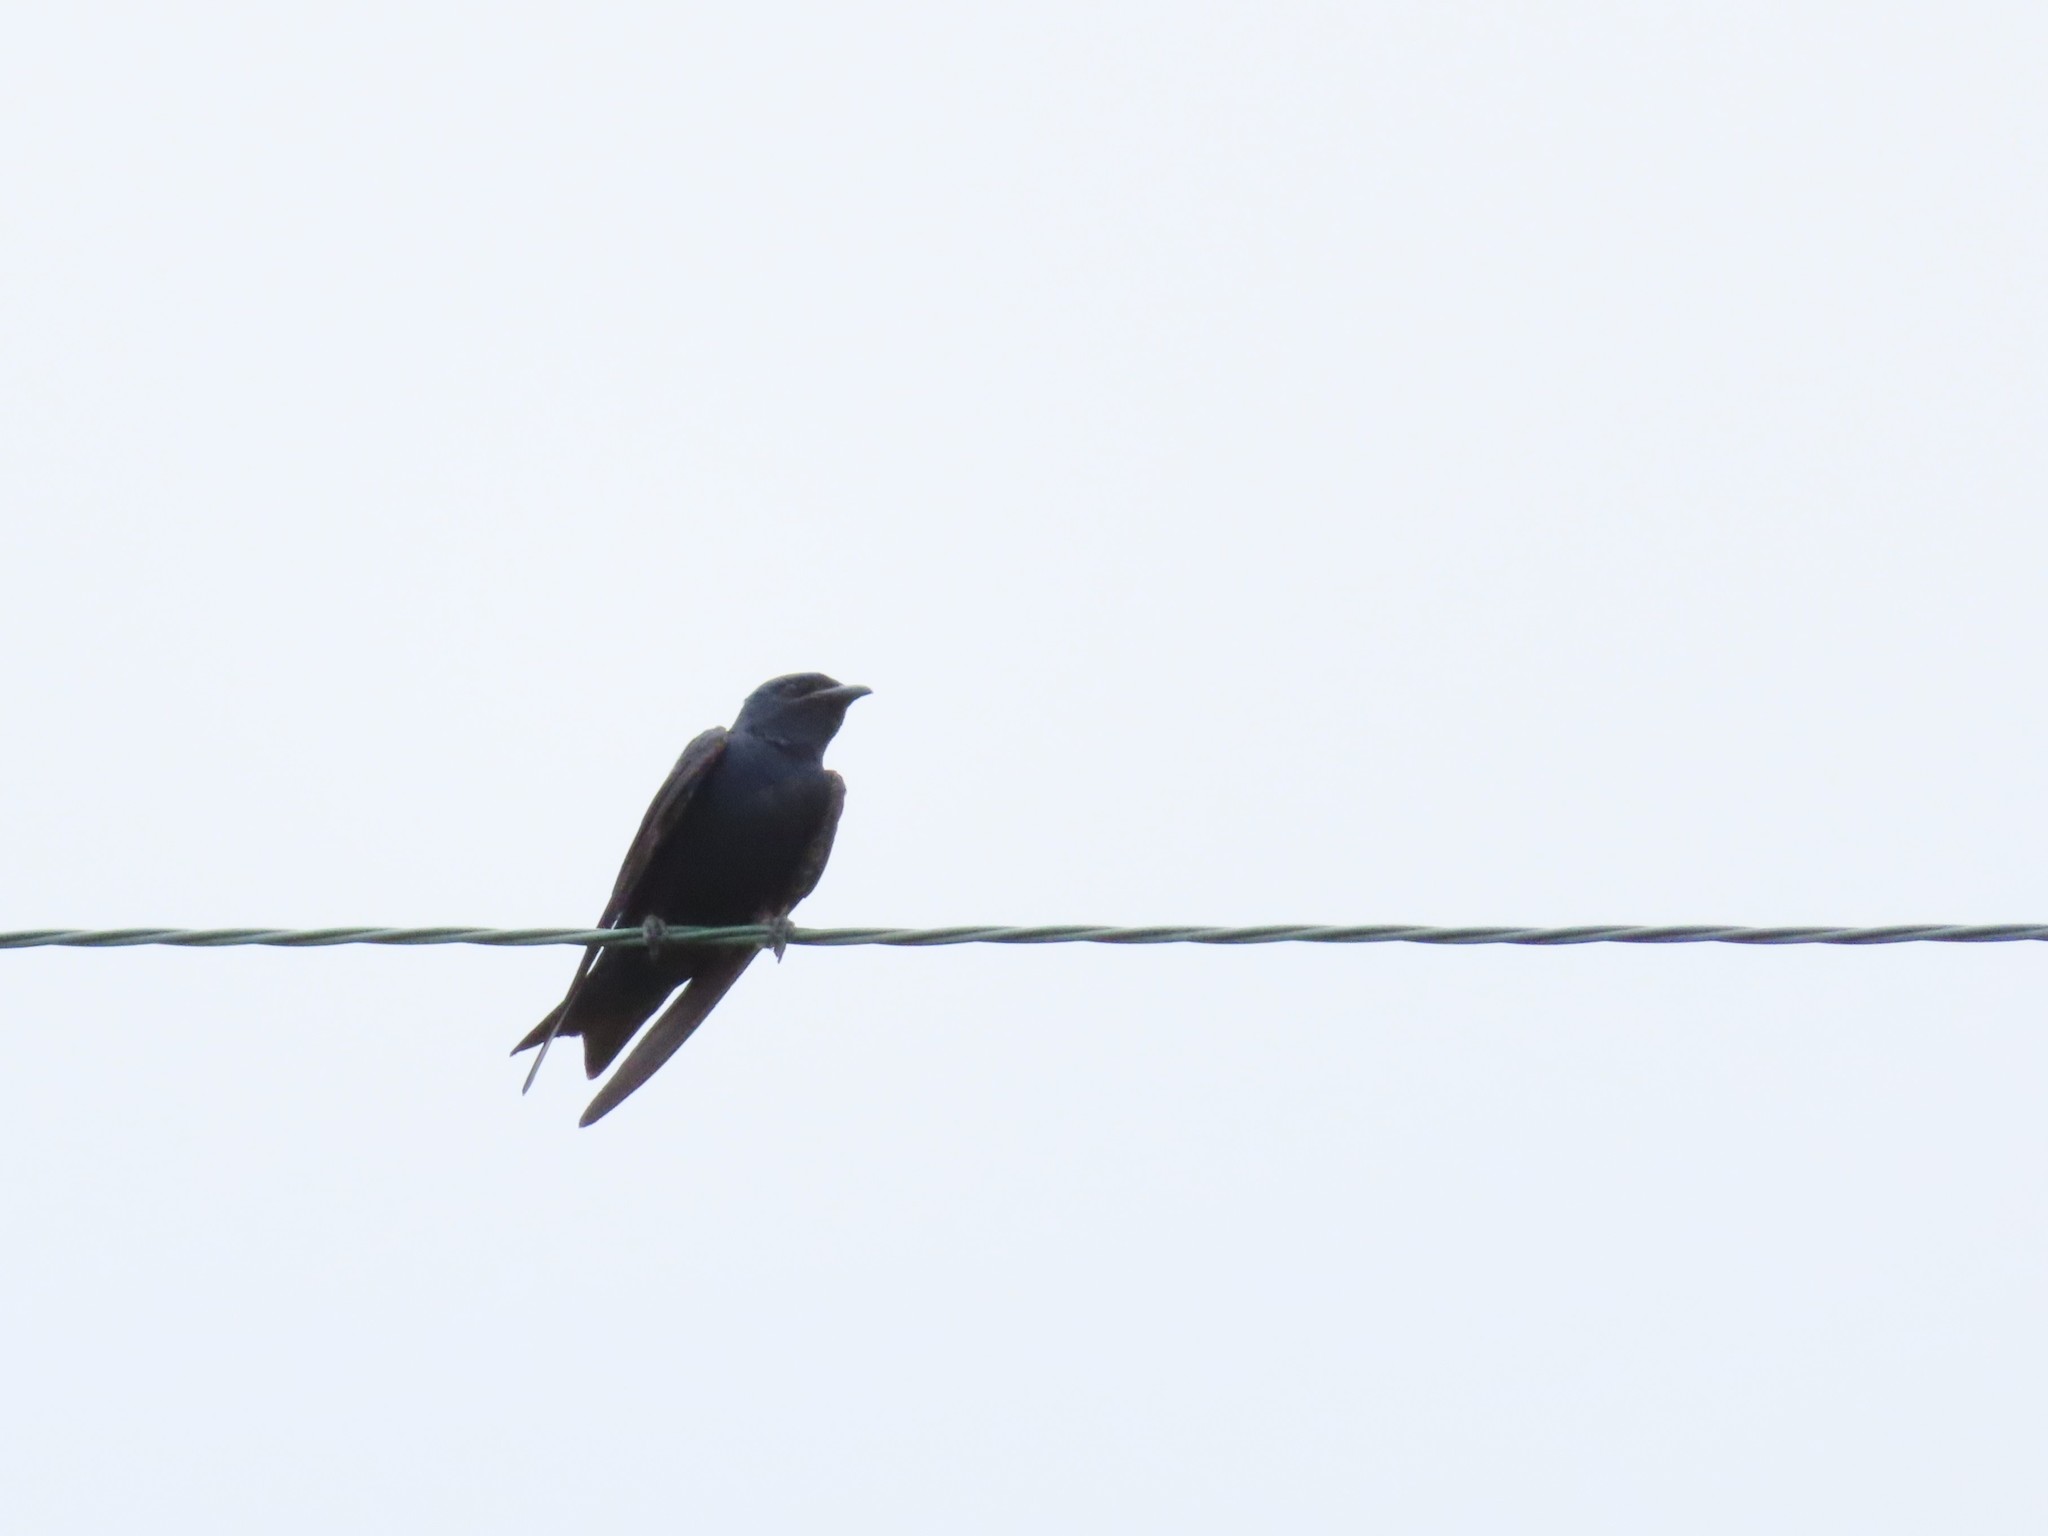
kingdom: Animalia
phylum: Chordata
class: Aves
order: Passeriformes
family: Hirundinidae
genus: Progne
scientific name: Progne subis
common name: Purple martin
